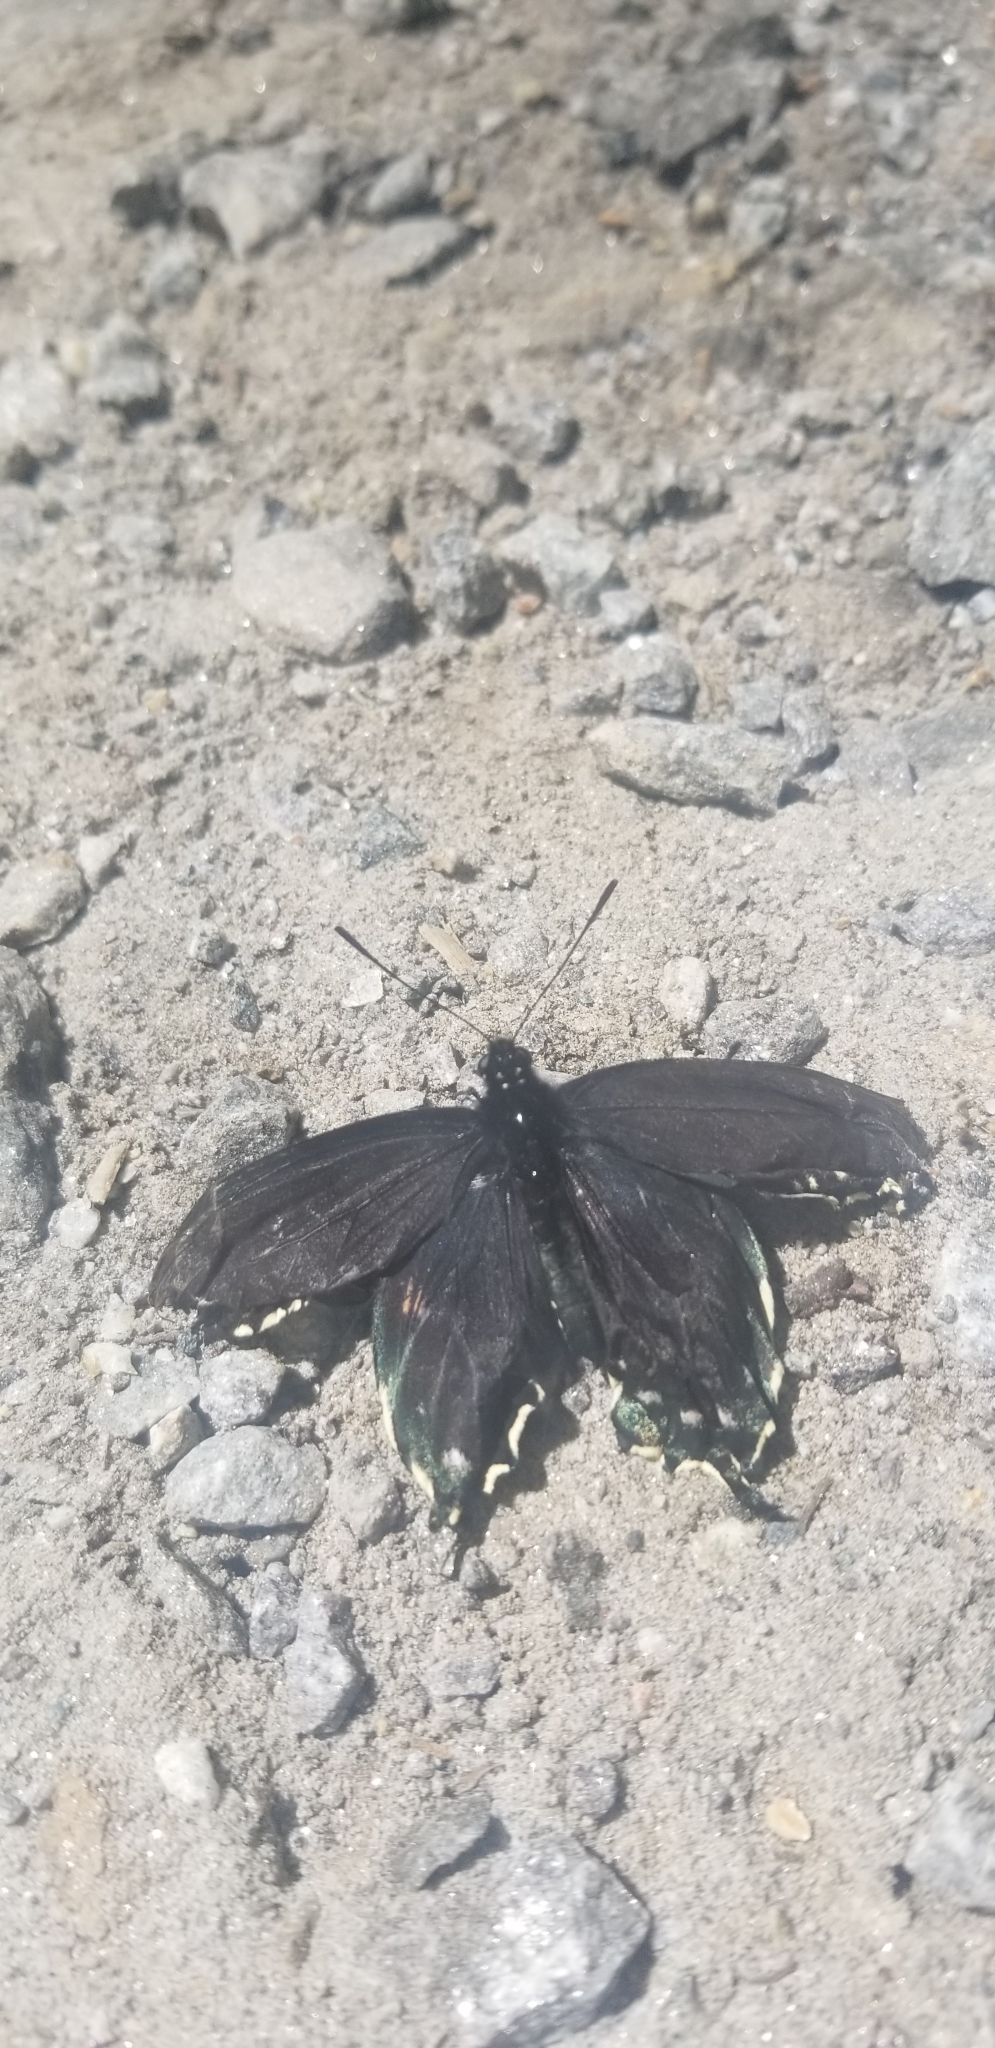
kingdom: Animalia
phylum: Arthropoda
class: Insecta
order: Lepidoptera
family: Papilionidae
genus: Battus
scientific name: Battus philenor
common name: Pipevine swallowtail
